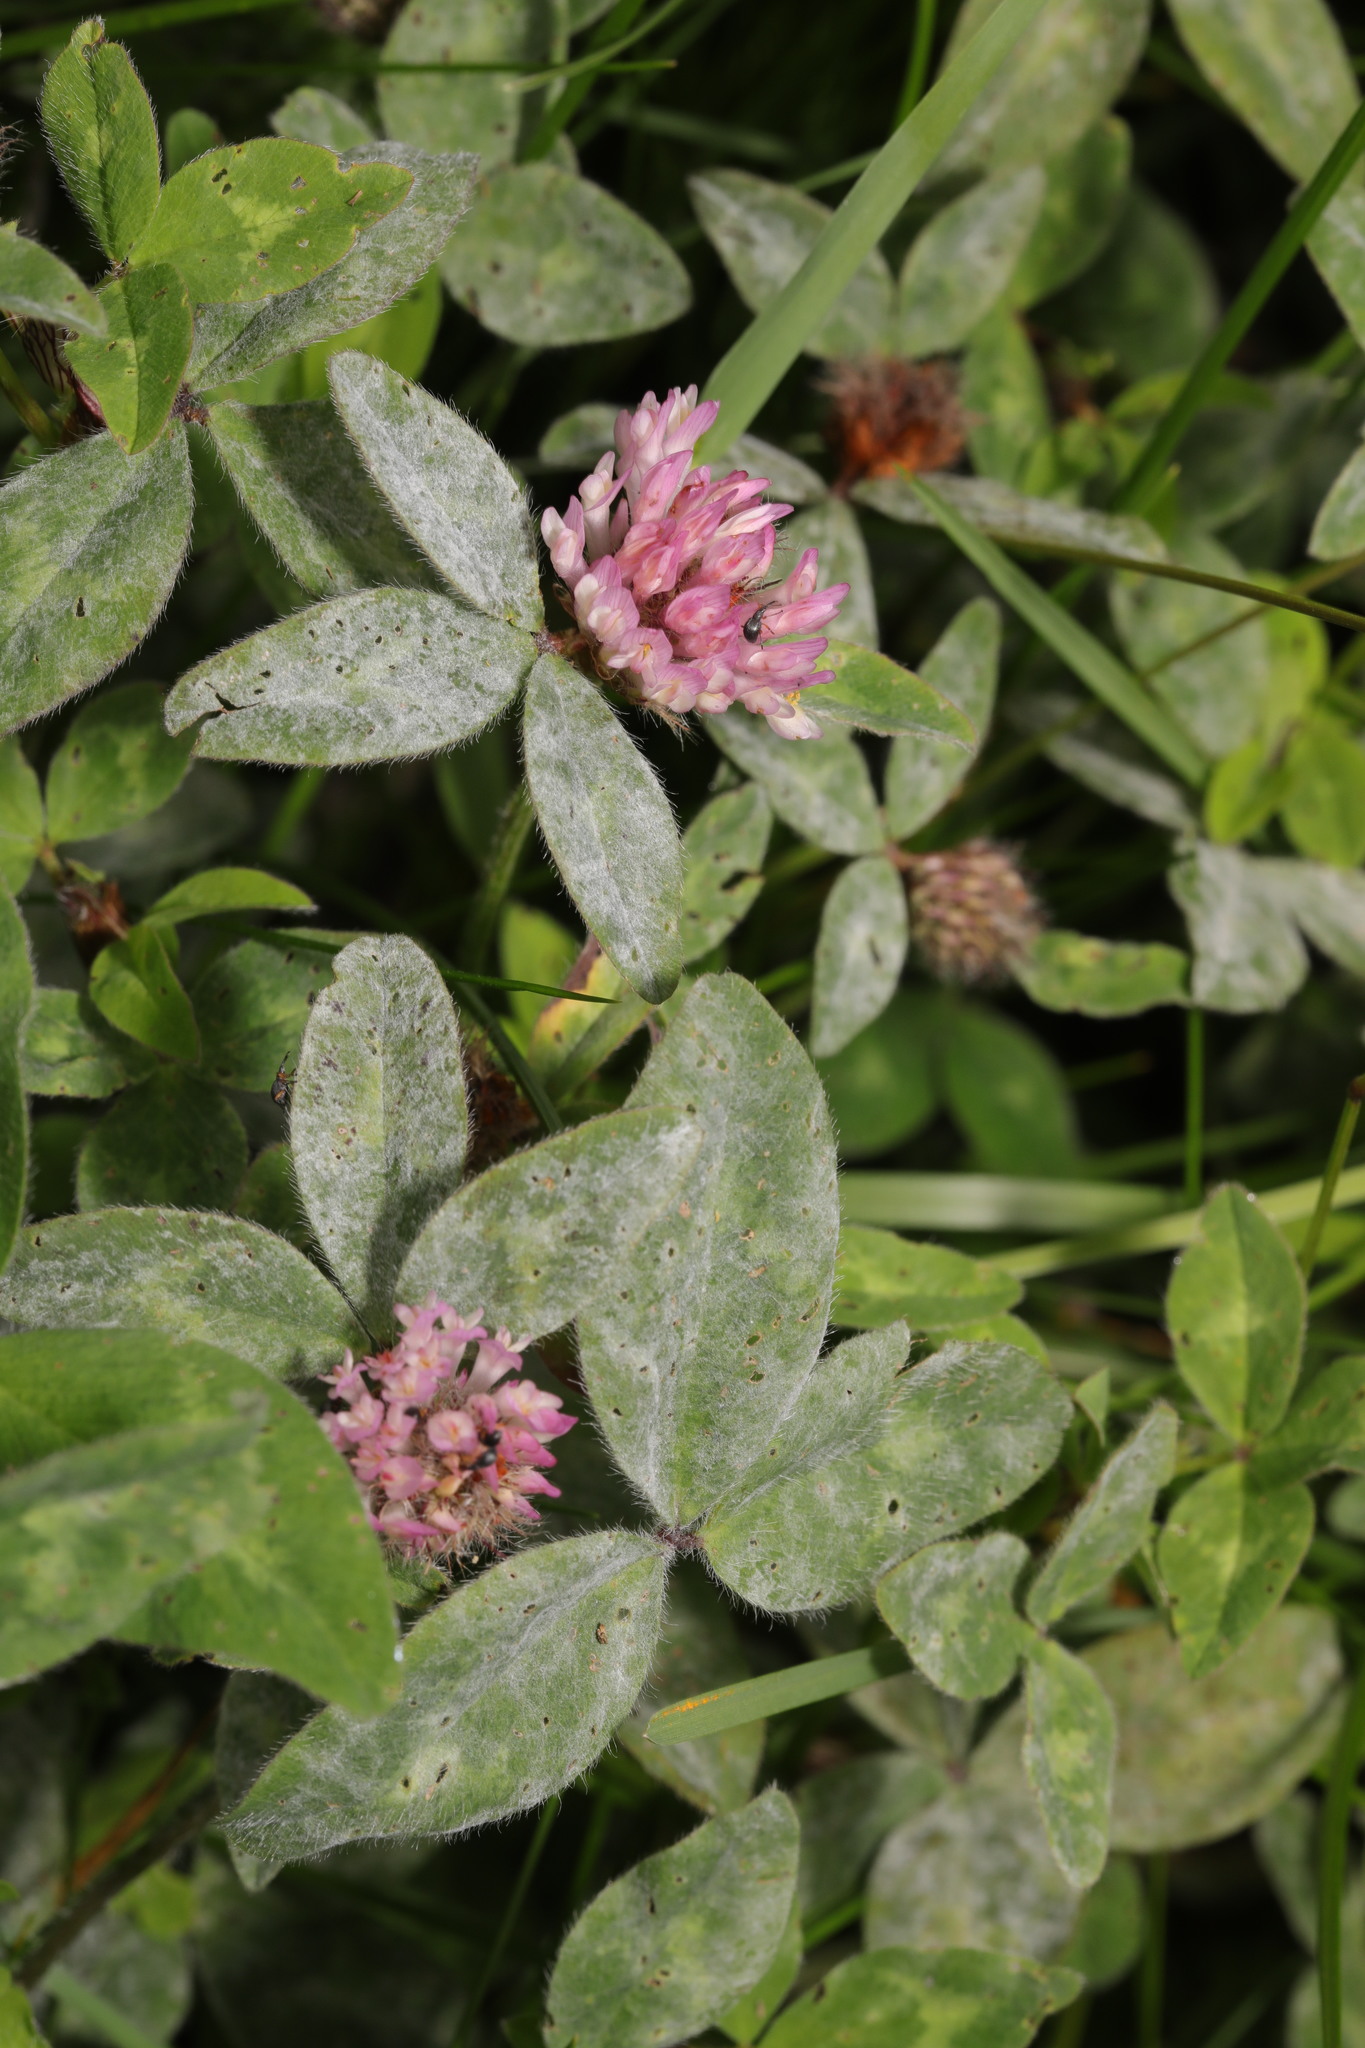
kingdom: Plantae
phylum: Tracheophyta
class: Magnoliopsida
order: Fabales
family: Fabaceae
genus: Trifolium
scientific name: Trifolium pratense
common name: Red clover
